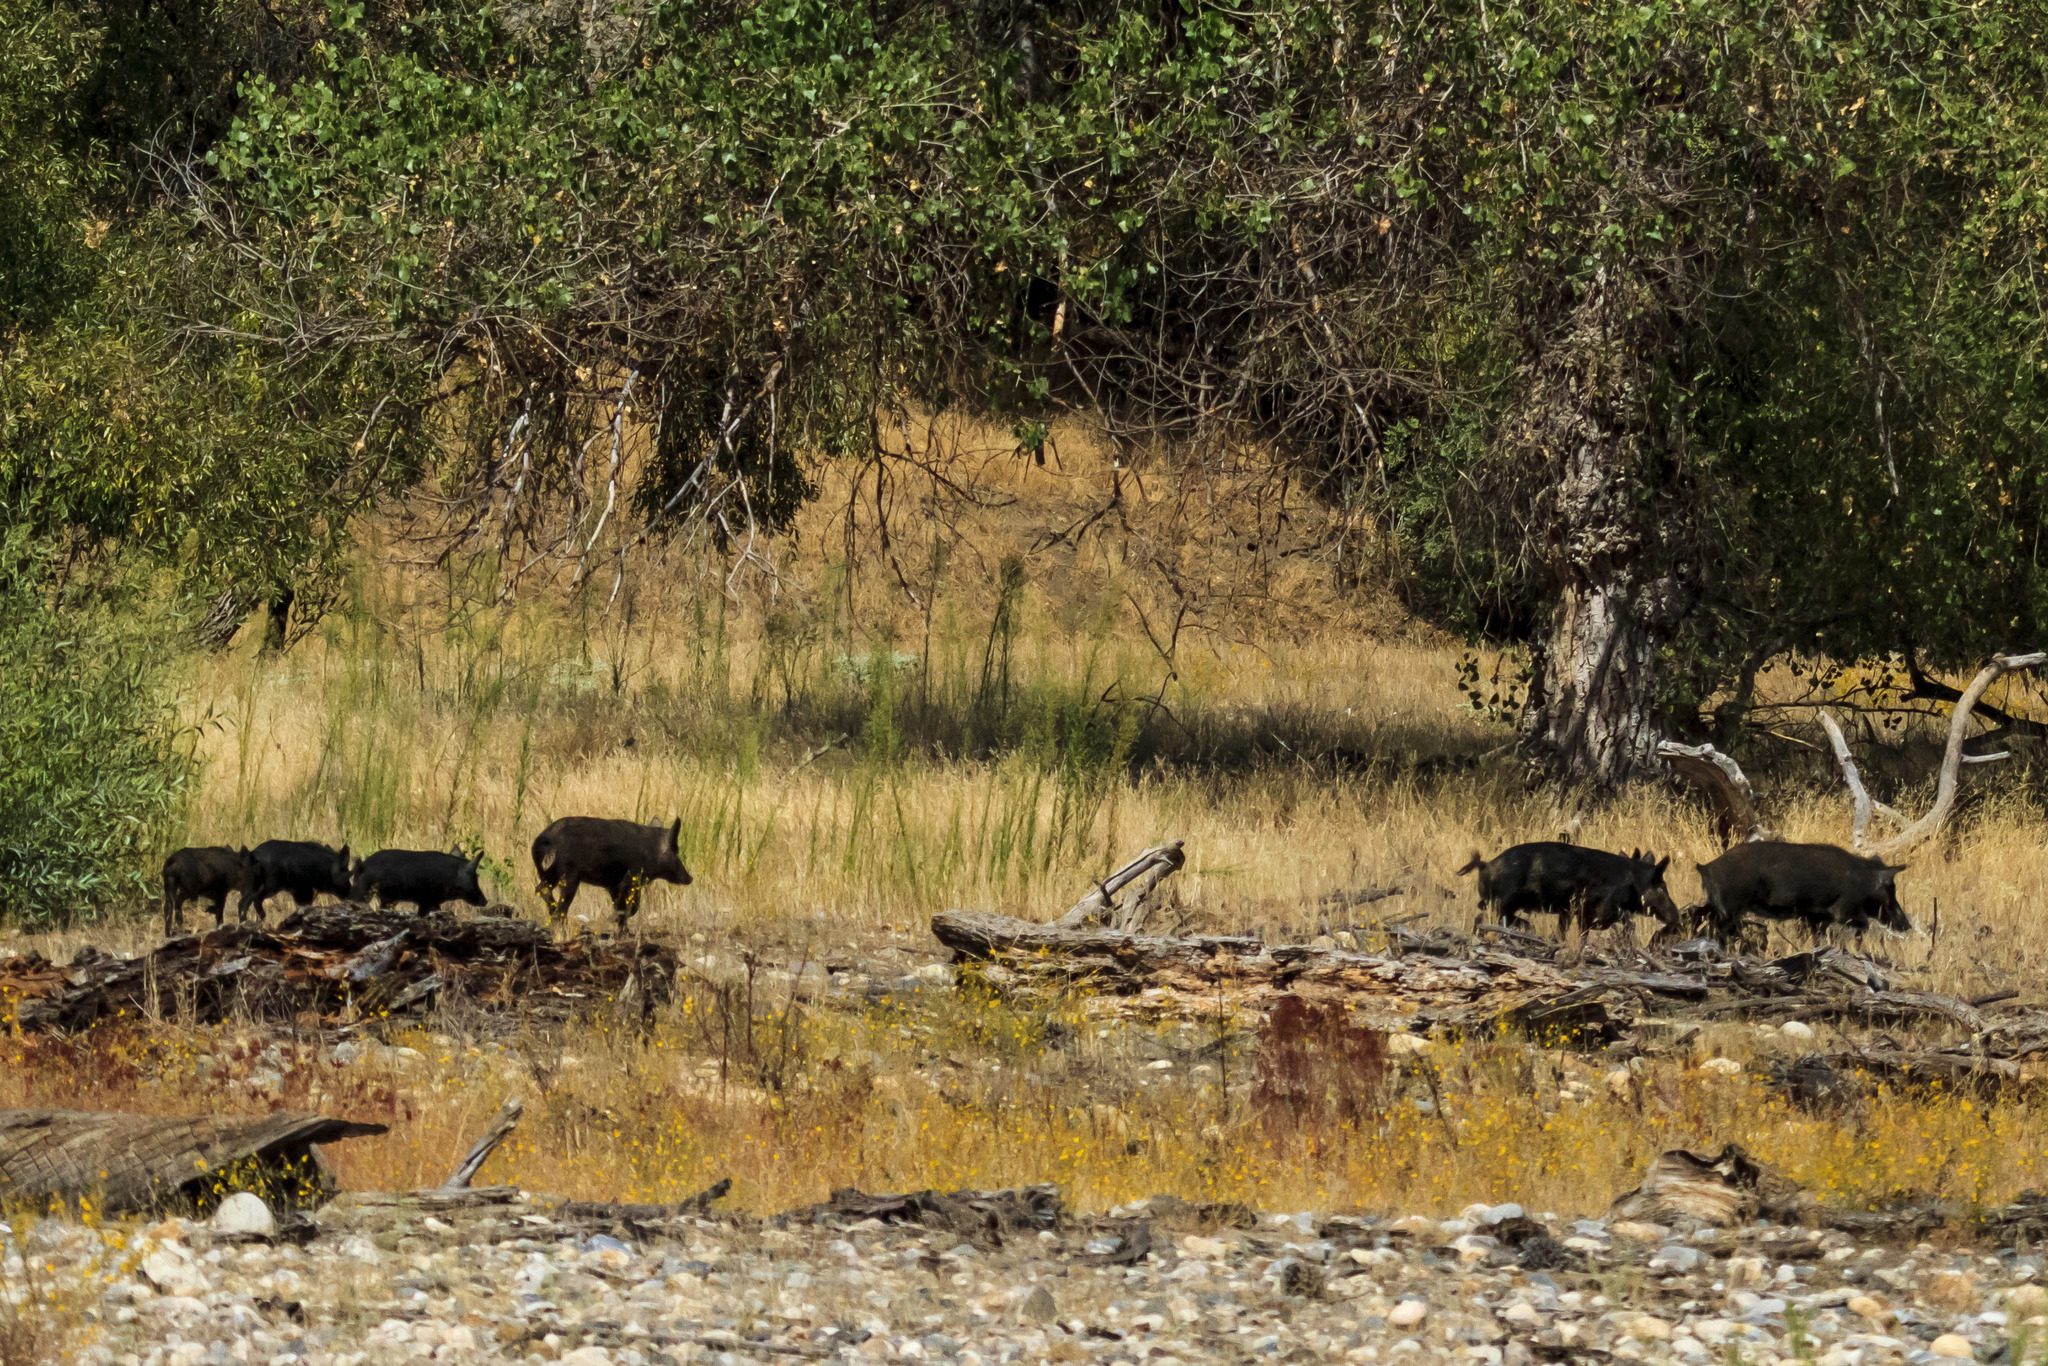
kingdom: Animalia
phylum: Chordata
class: Mammalia
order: Artiodactyla
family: Suidae
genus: Sus
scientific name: Sus scrofa
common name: Wild boar
